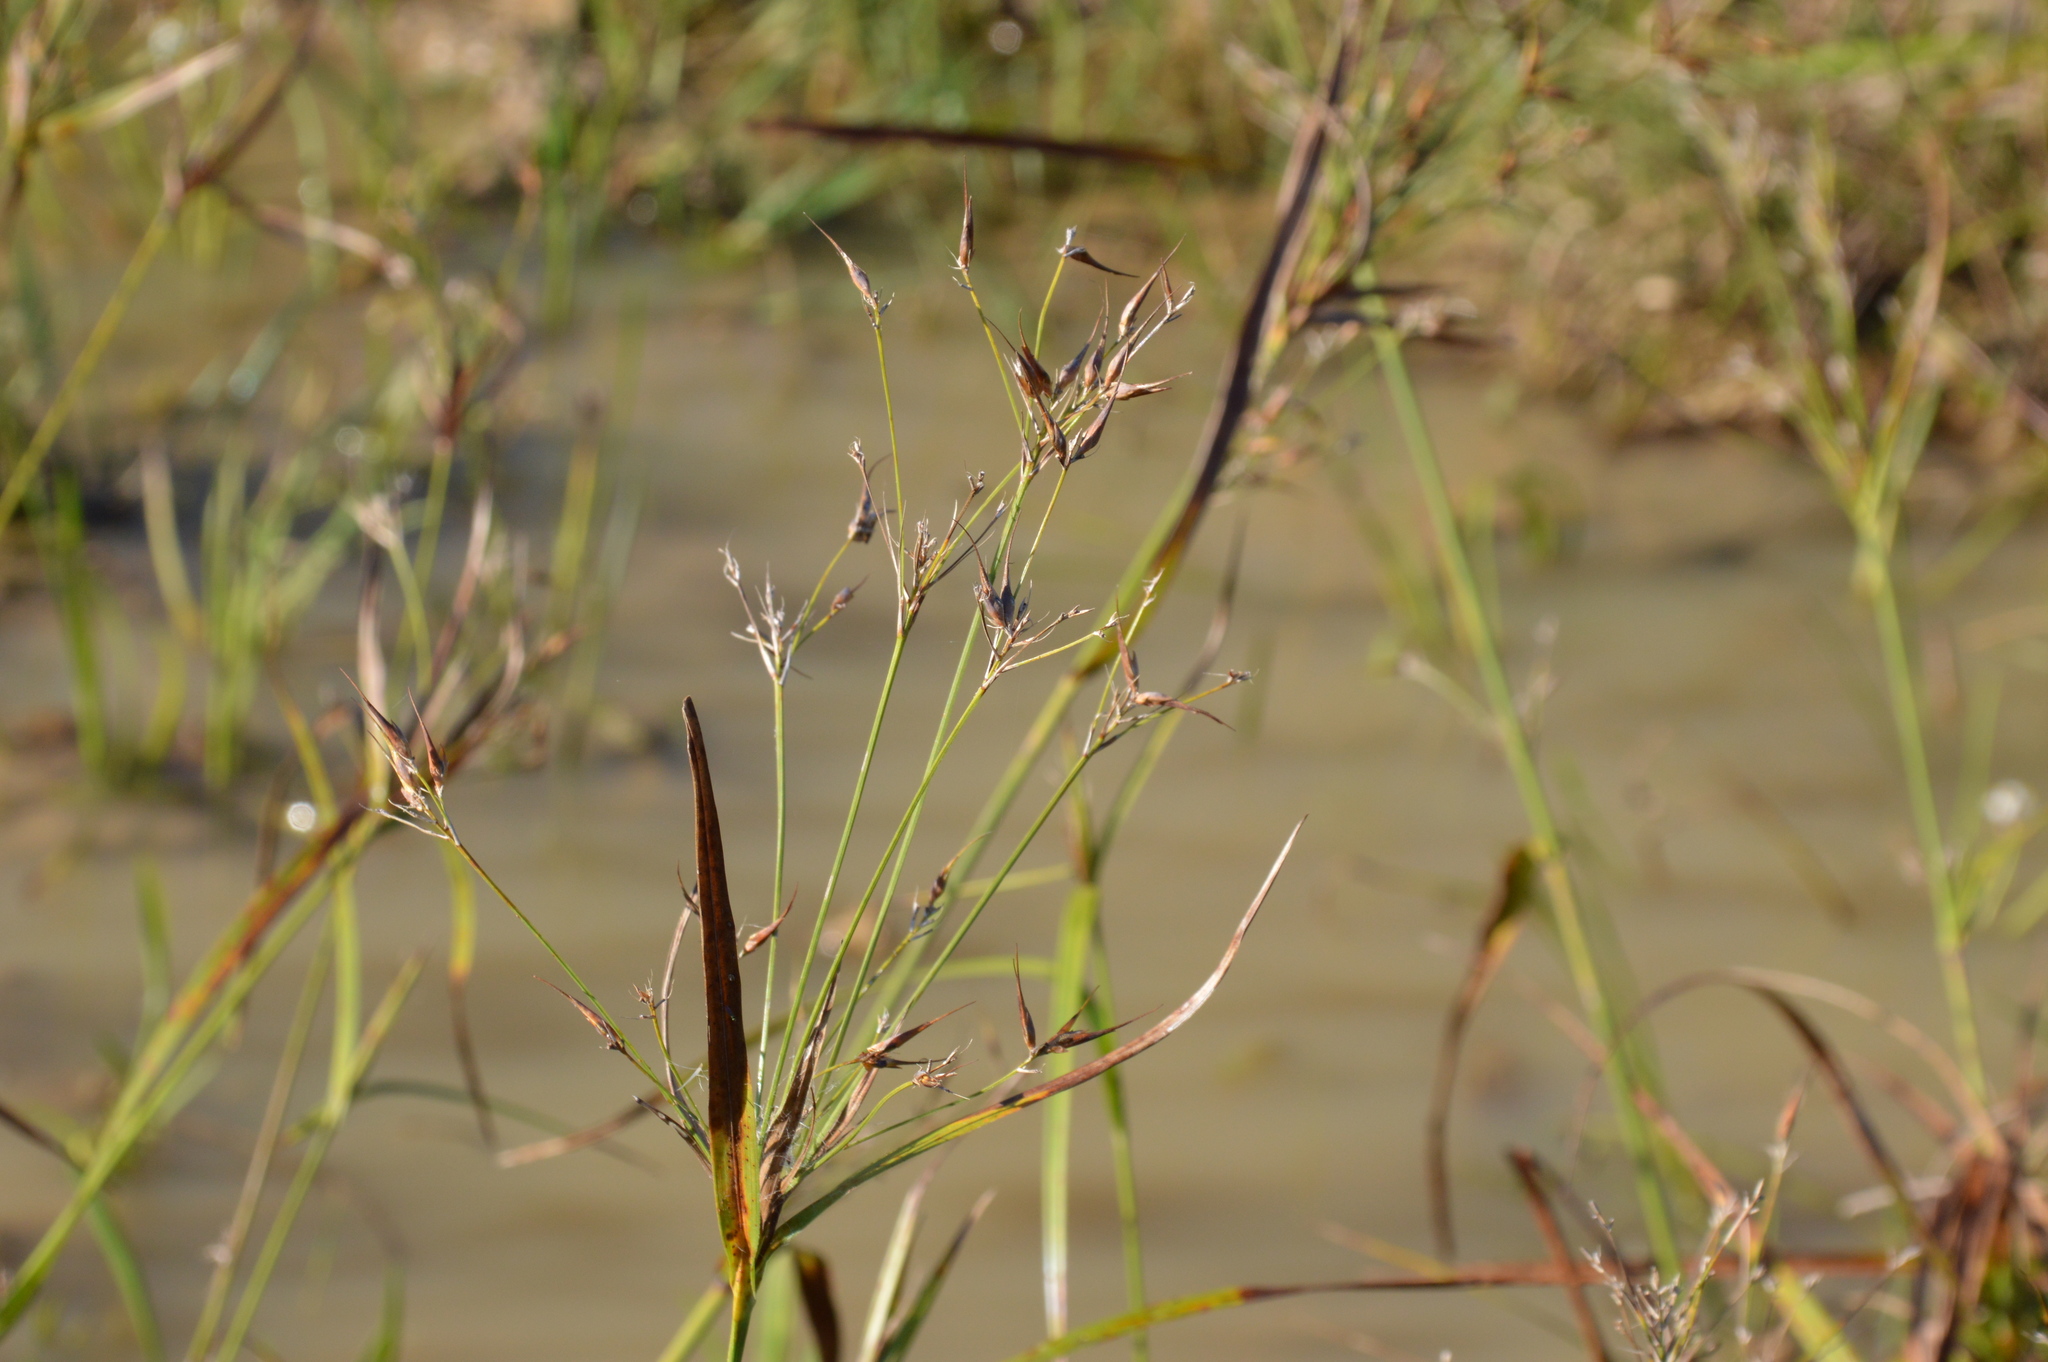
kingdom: Plantae
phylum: Tracheophyta
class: Liliopsida
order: Poales
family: Cyperaceae
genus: Rhynchospora
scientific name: Rhynchospora corniculata
